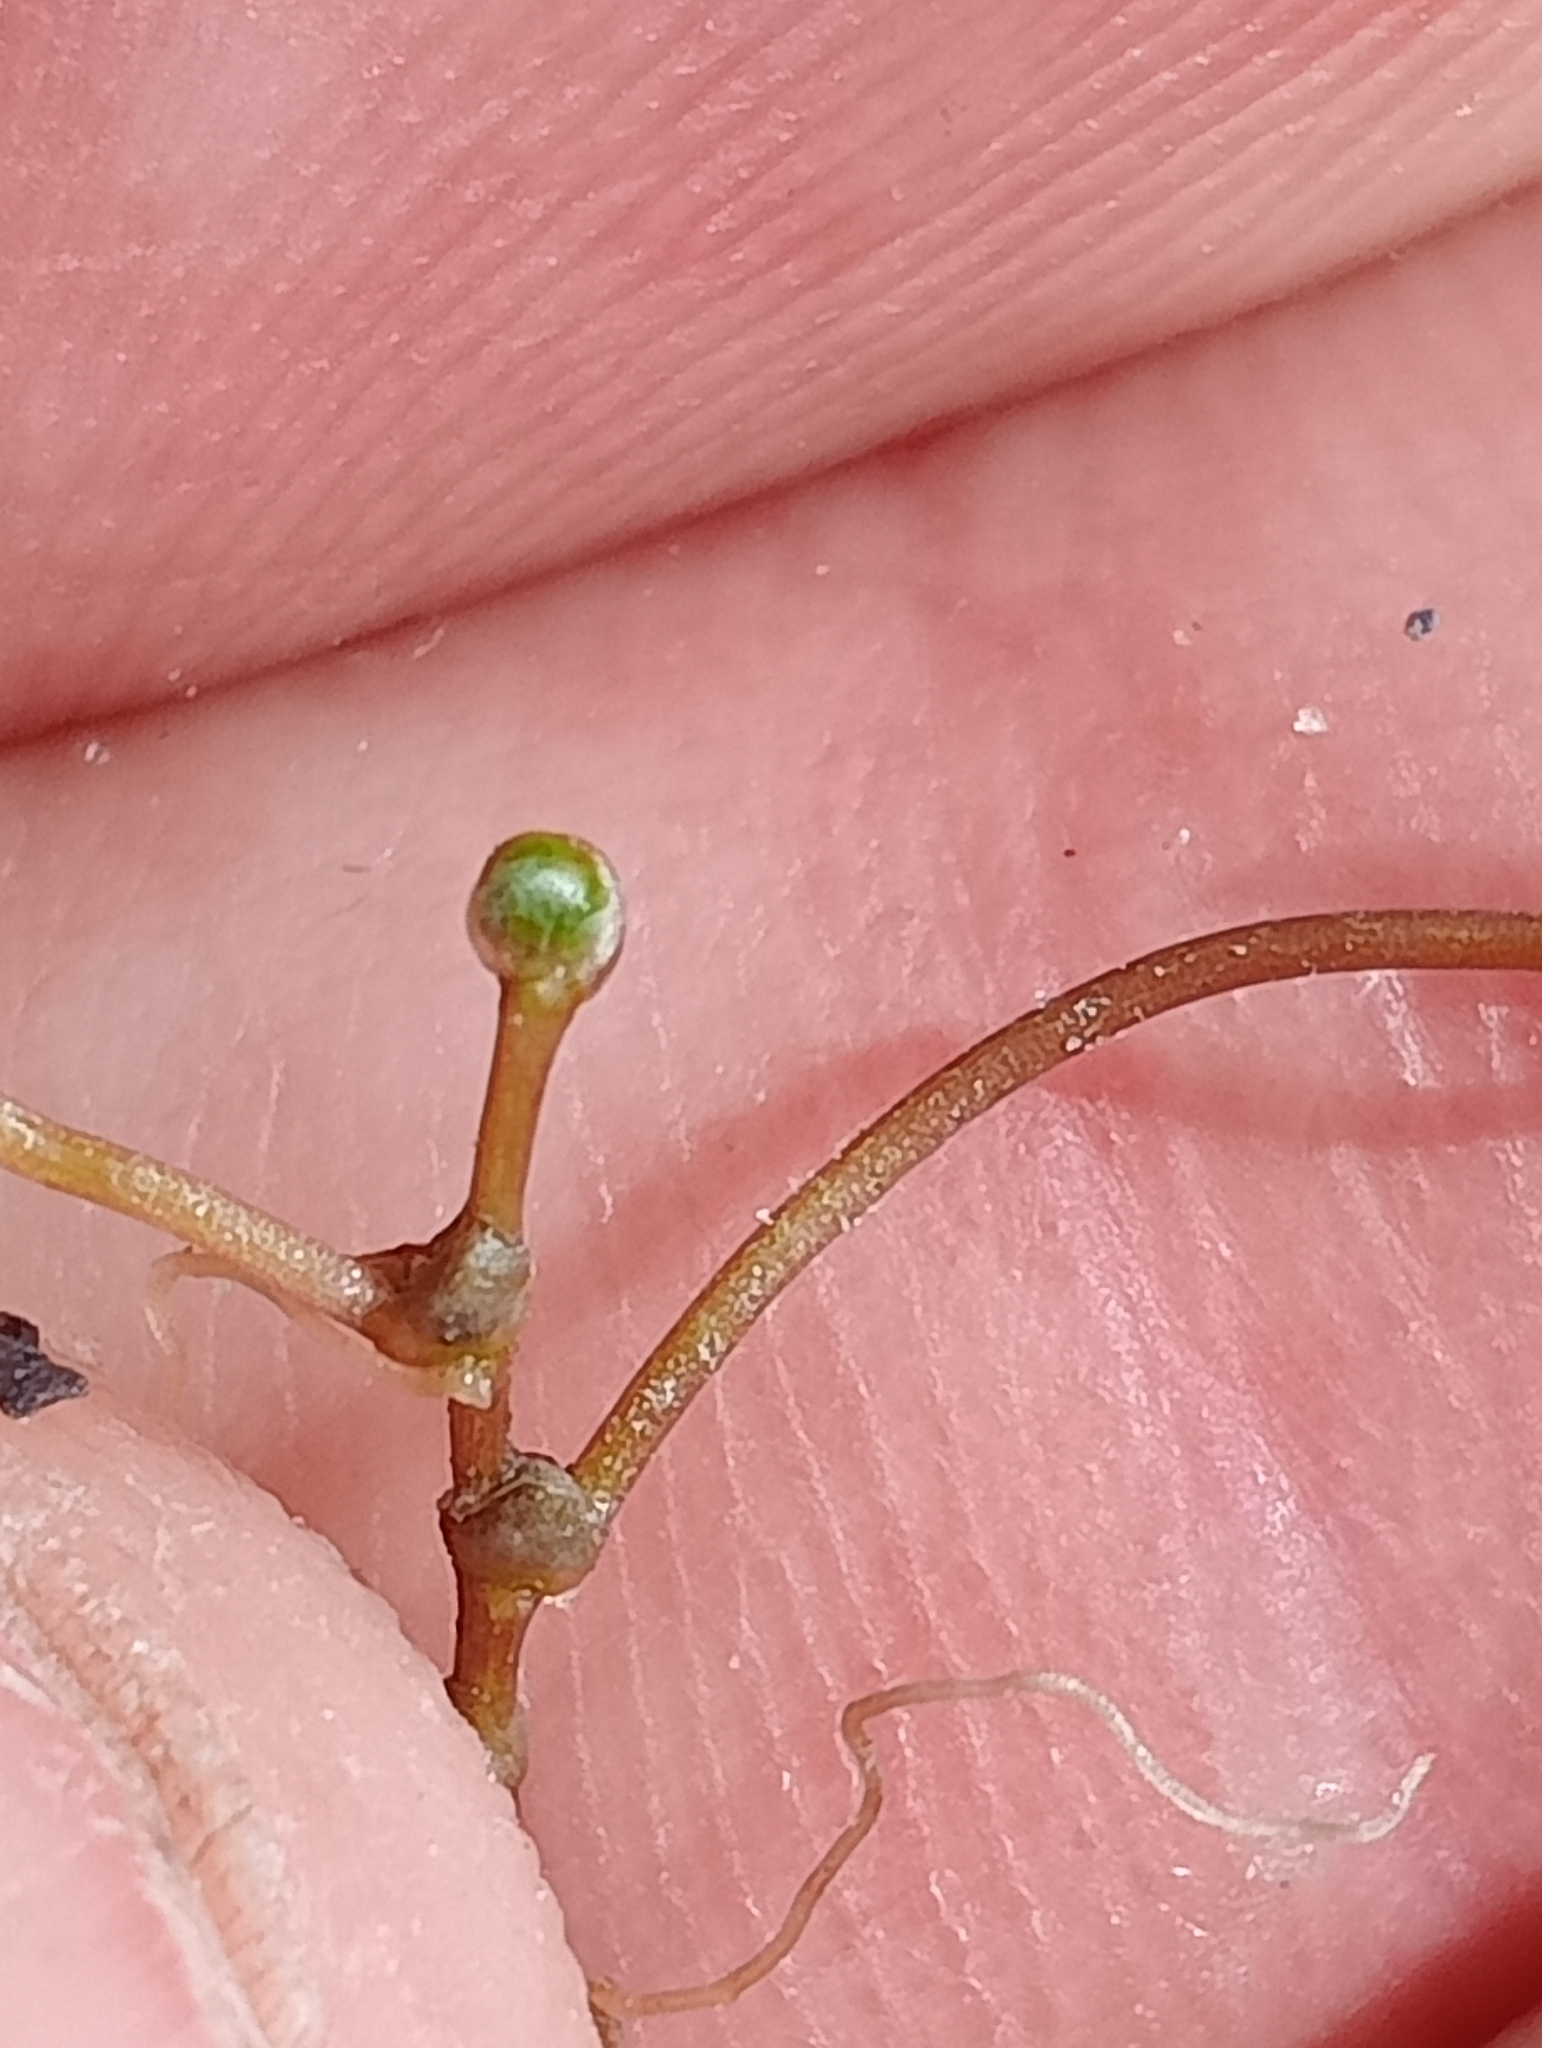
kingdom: Plantae
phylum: Tracheophyta
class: Magnoliopsida
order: Apiales
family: Araliaceae
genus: Hydrocotyle
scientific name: Hydrocotyle sulcata
